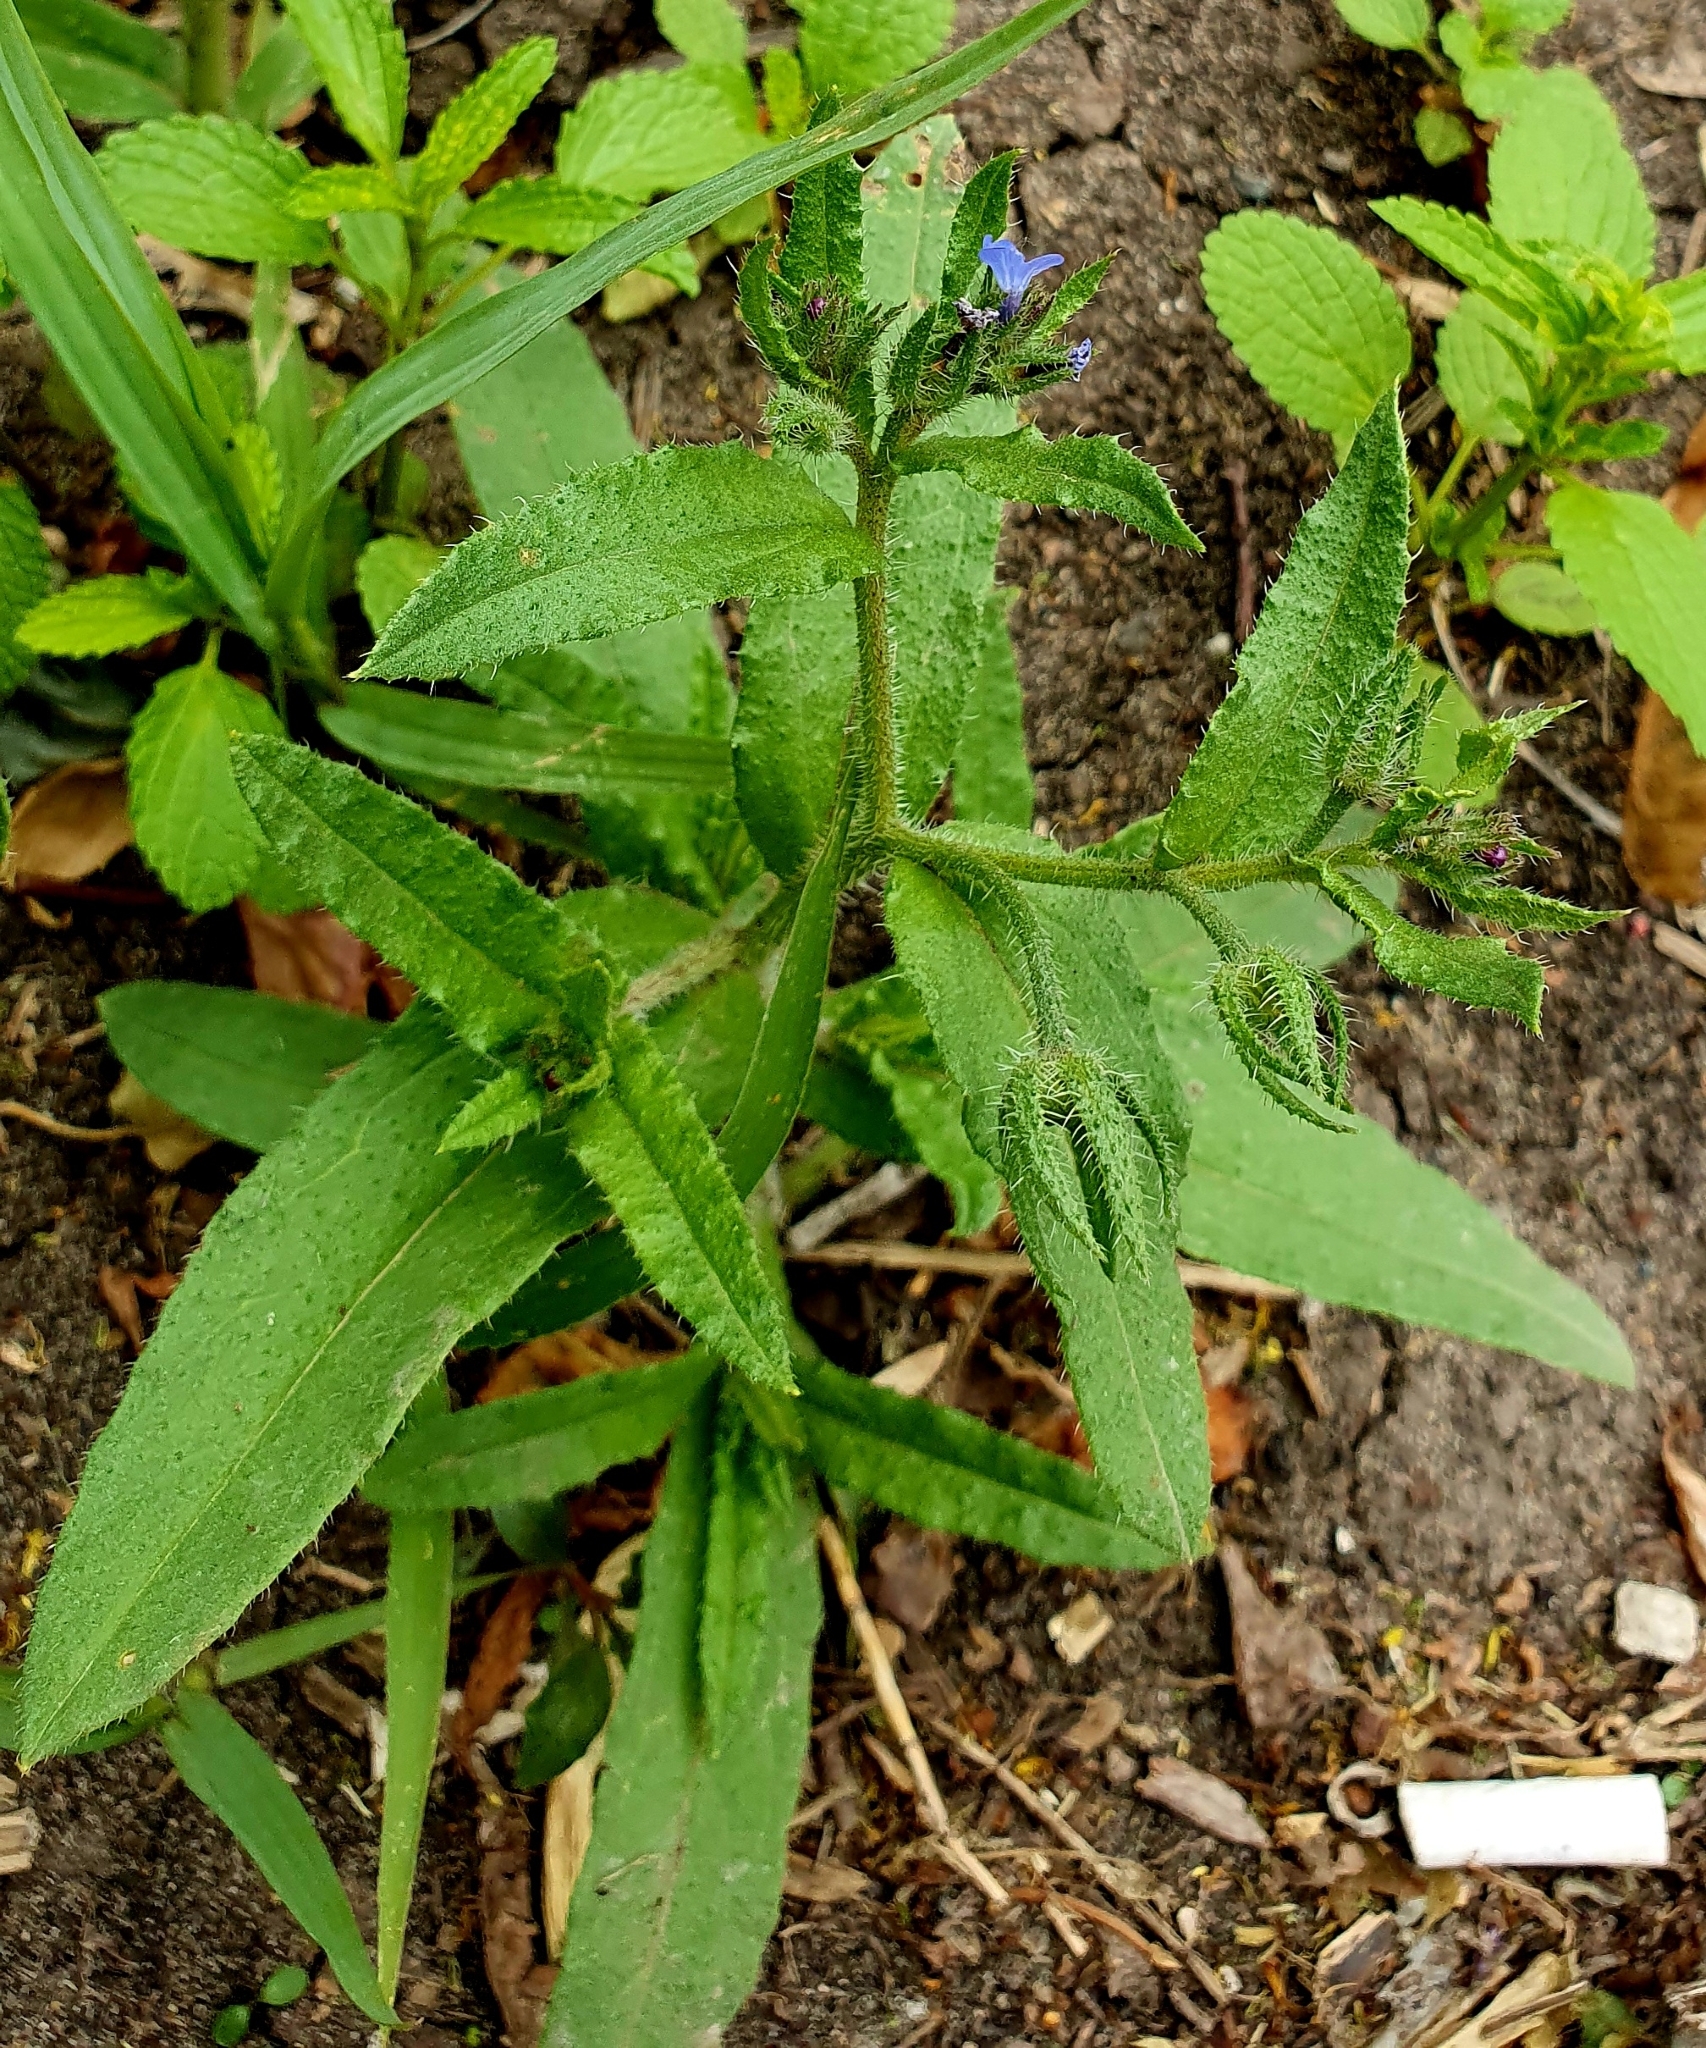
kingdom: Plantae
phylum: Tracheophyta
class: Magnoliopsida
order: Boraginales
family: Boraginaceae
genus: Lycopsis
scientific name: Lycopsis arvensis
